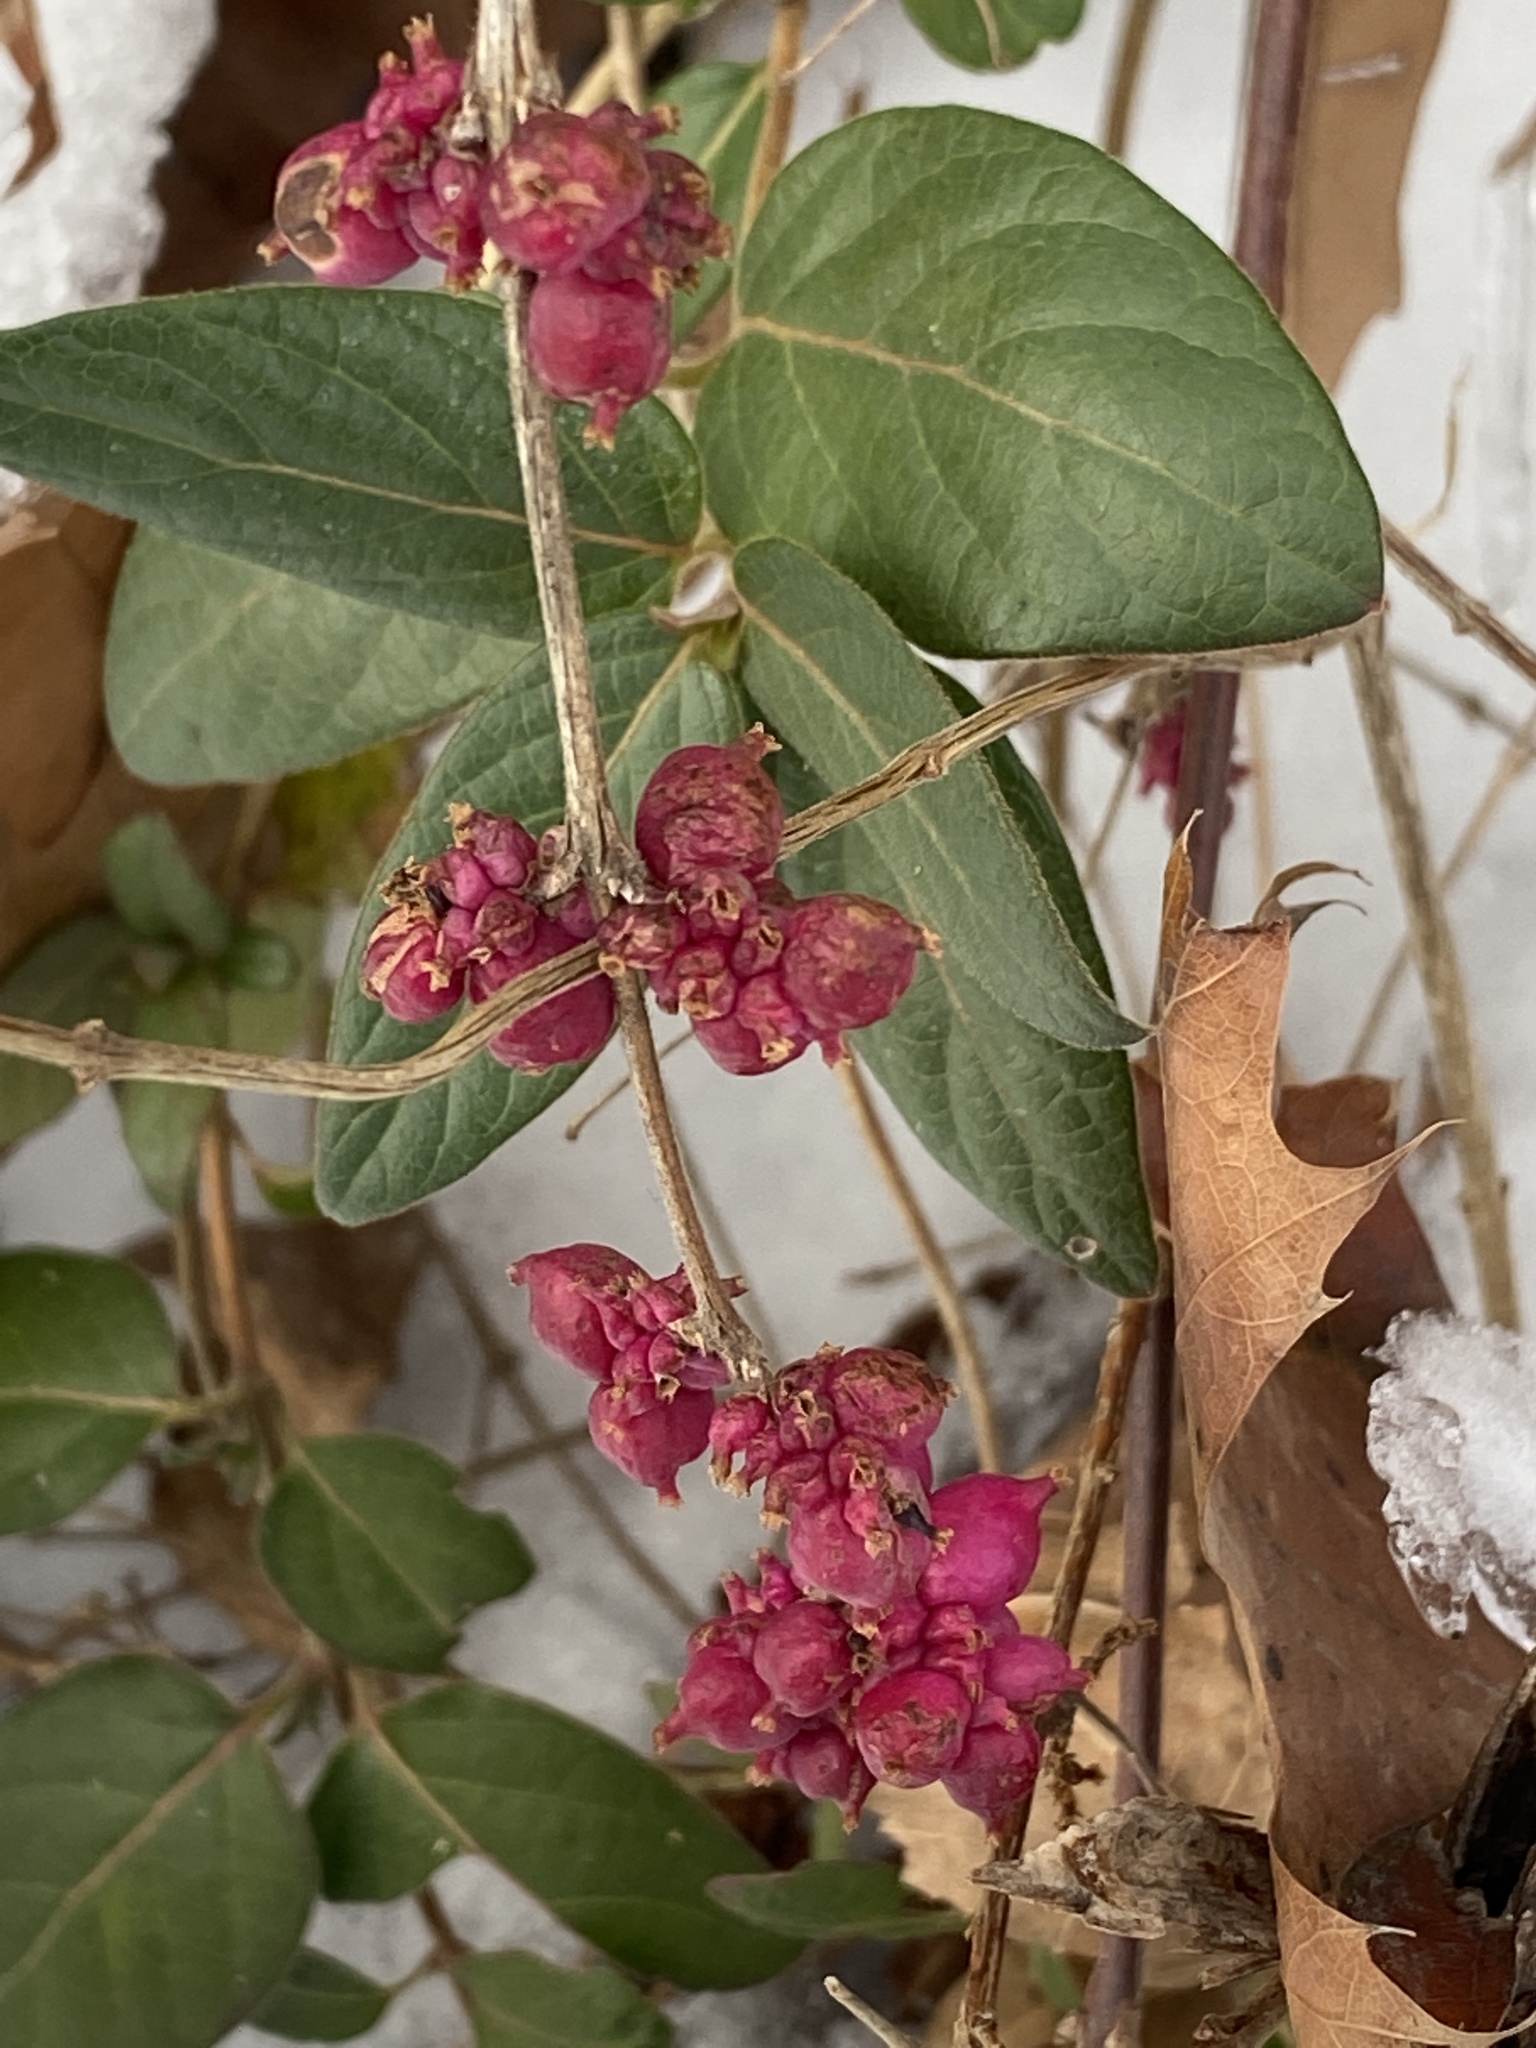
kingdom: Plantae
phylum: Tracheophyta
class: Magnoliopsida
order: Dipsacales
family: Caprifoliaceae
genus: Symphoricarpos
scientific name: Symphoricarpos orbiculatus
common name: Coralberry
